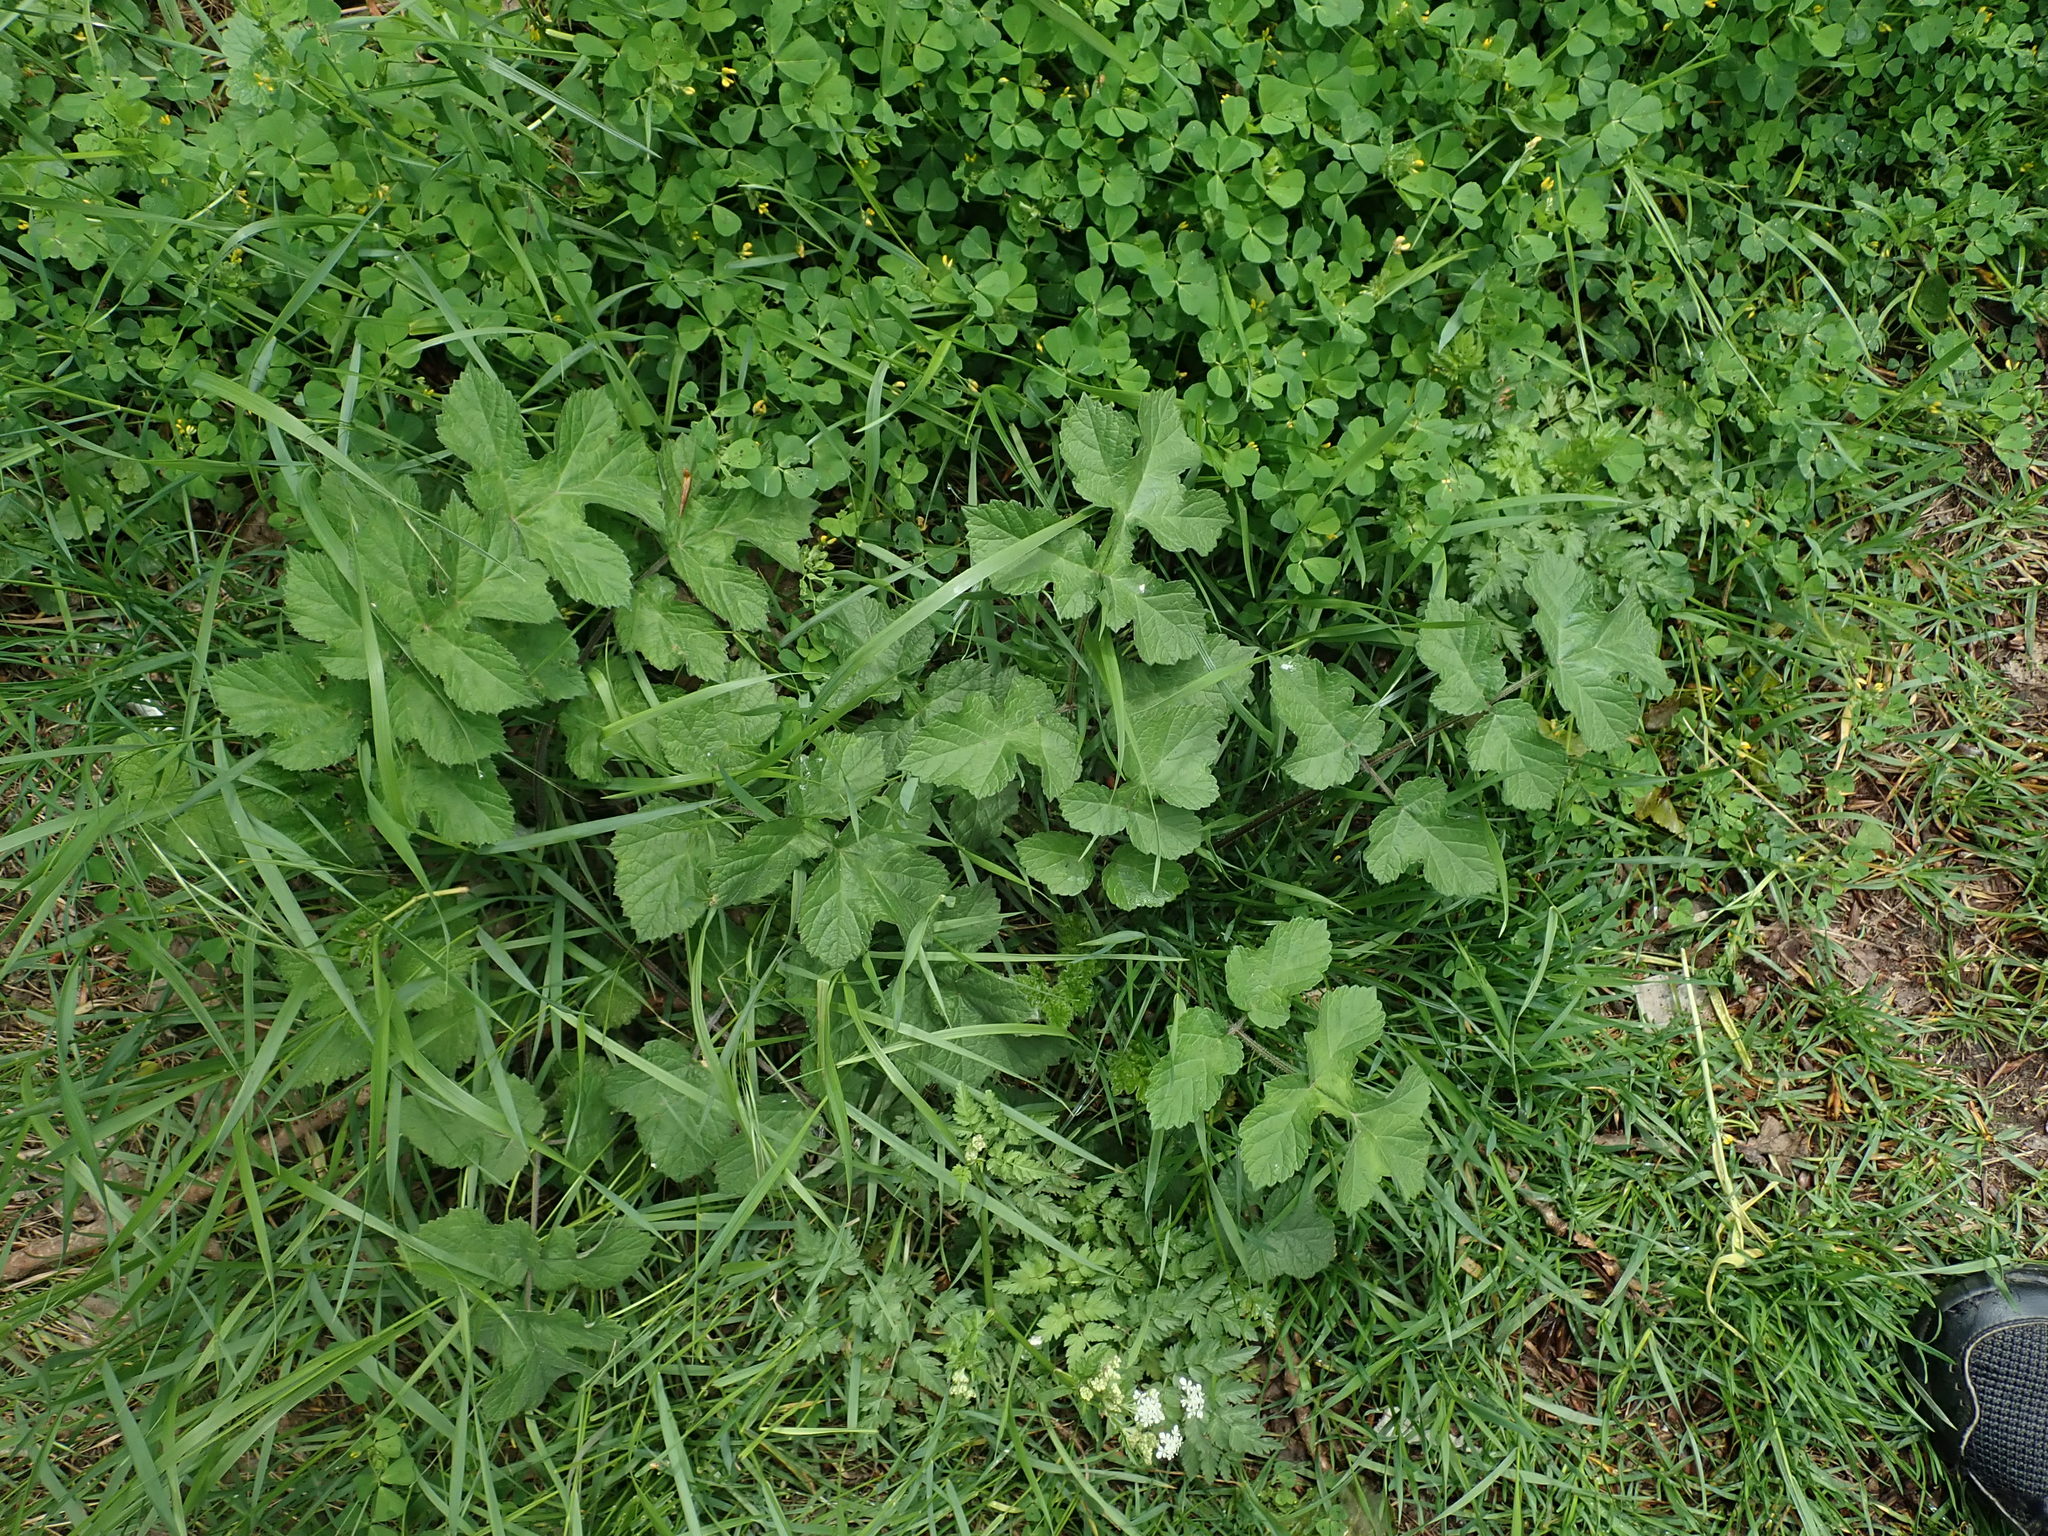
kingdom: Plantae
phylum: Tracheophyta
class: Magnoliopsida
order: Apiales
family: Apiaceae
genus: Heracleum
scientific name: Heracleum sphondylium
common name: Hogweed
